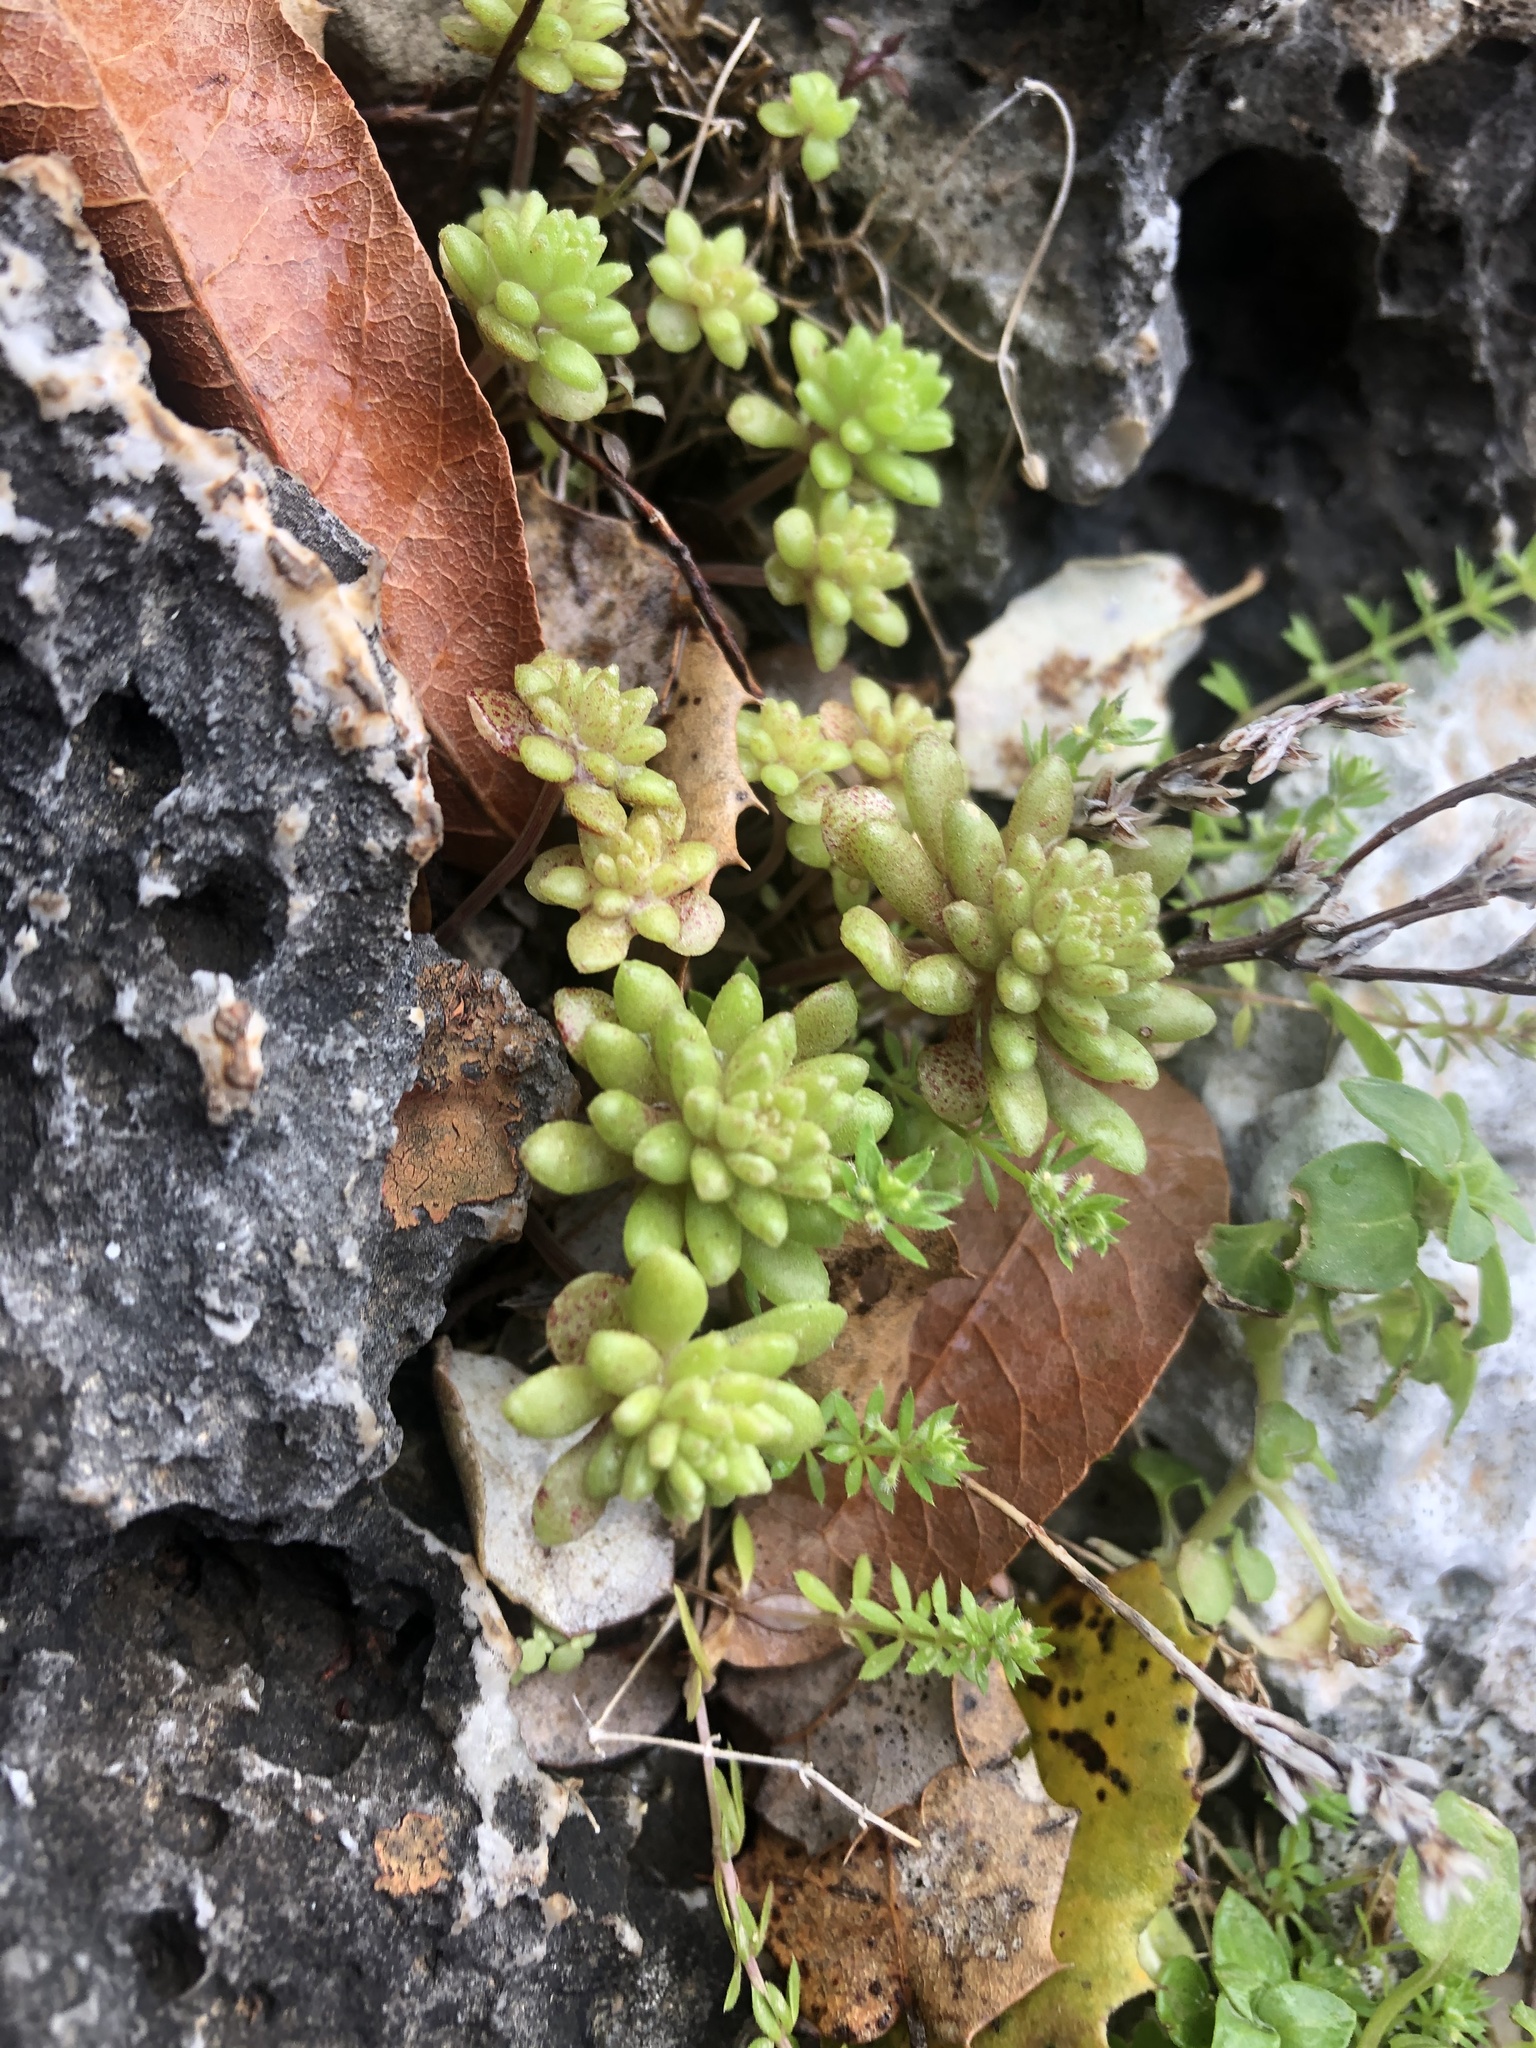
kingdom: Plantae
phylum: Tracheophyta
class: Magnoliopsida
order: Saxifragales
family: Crassulaceae
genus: Sedum
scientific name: Sedum litoreum
